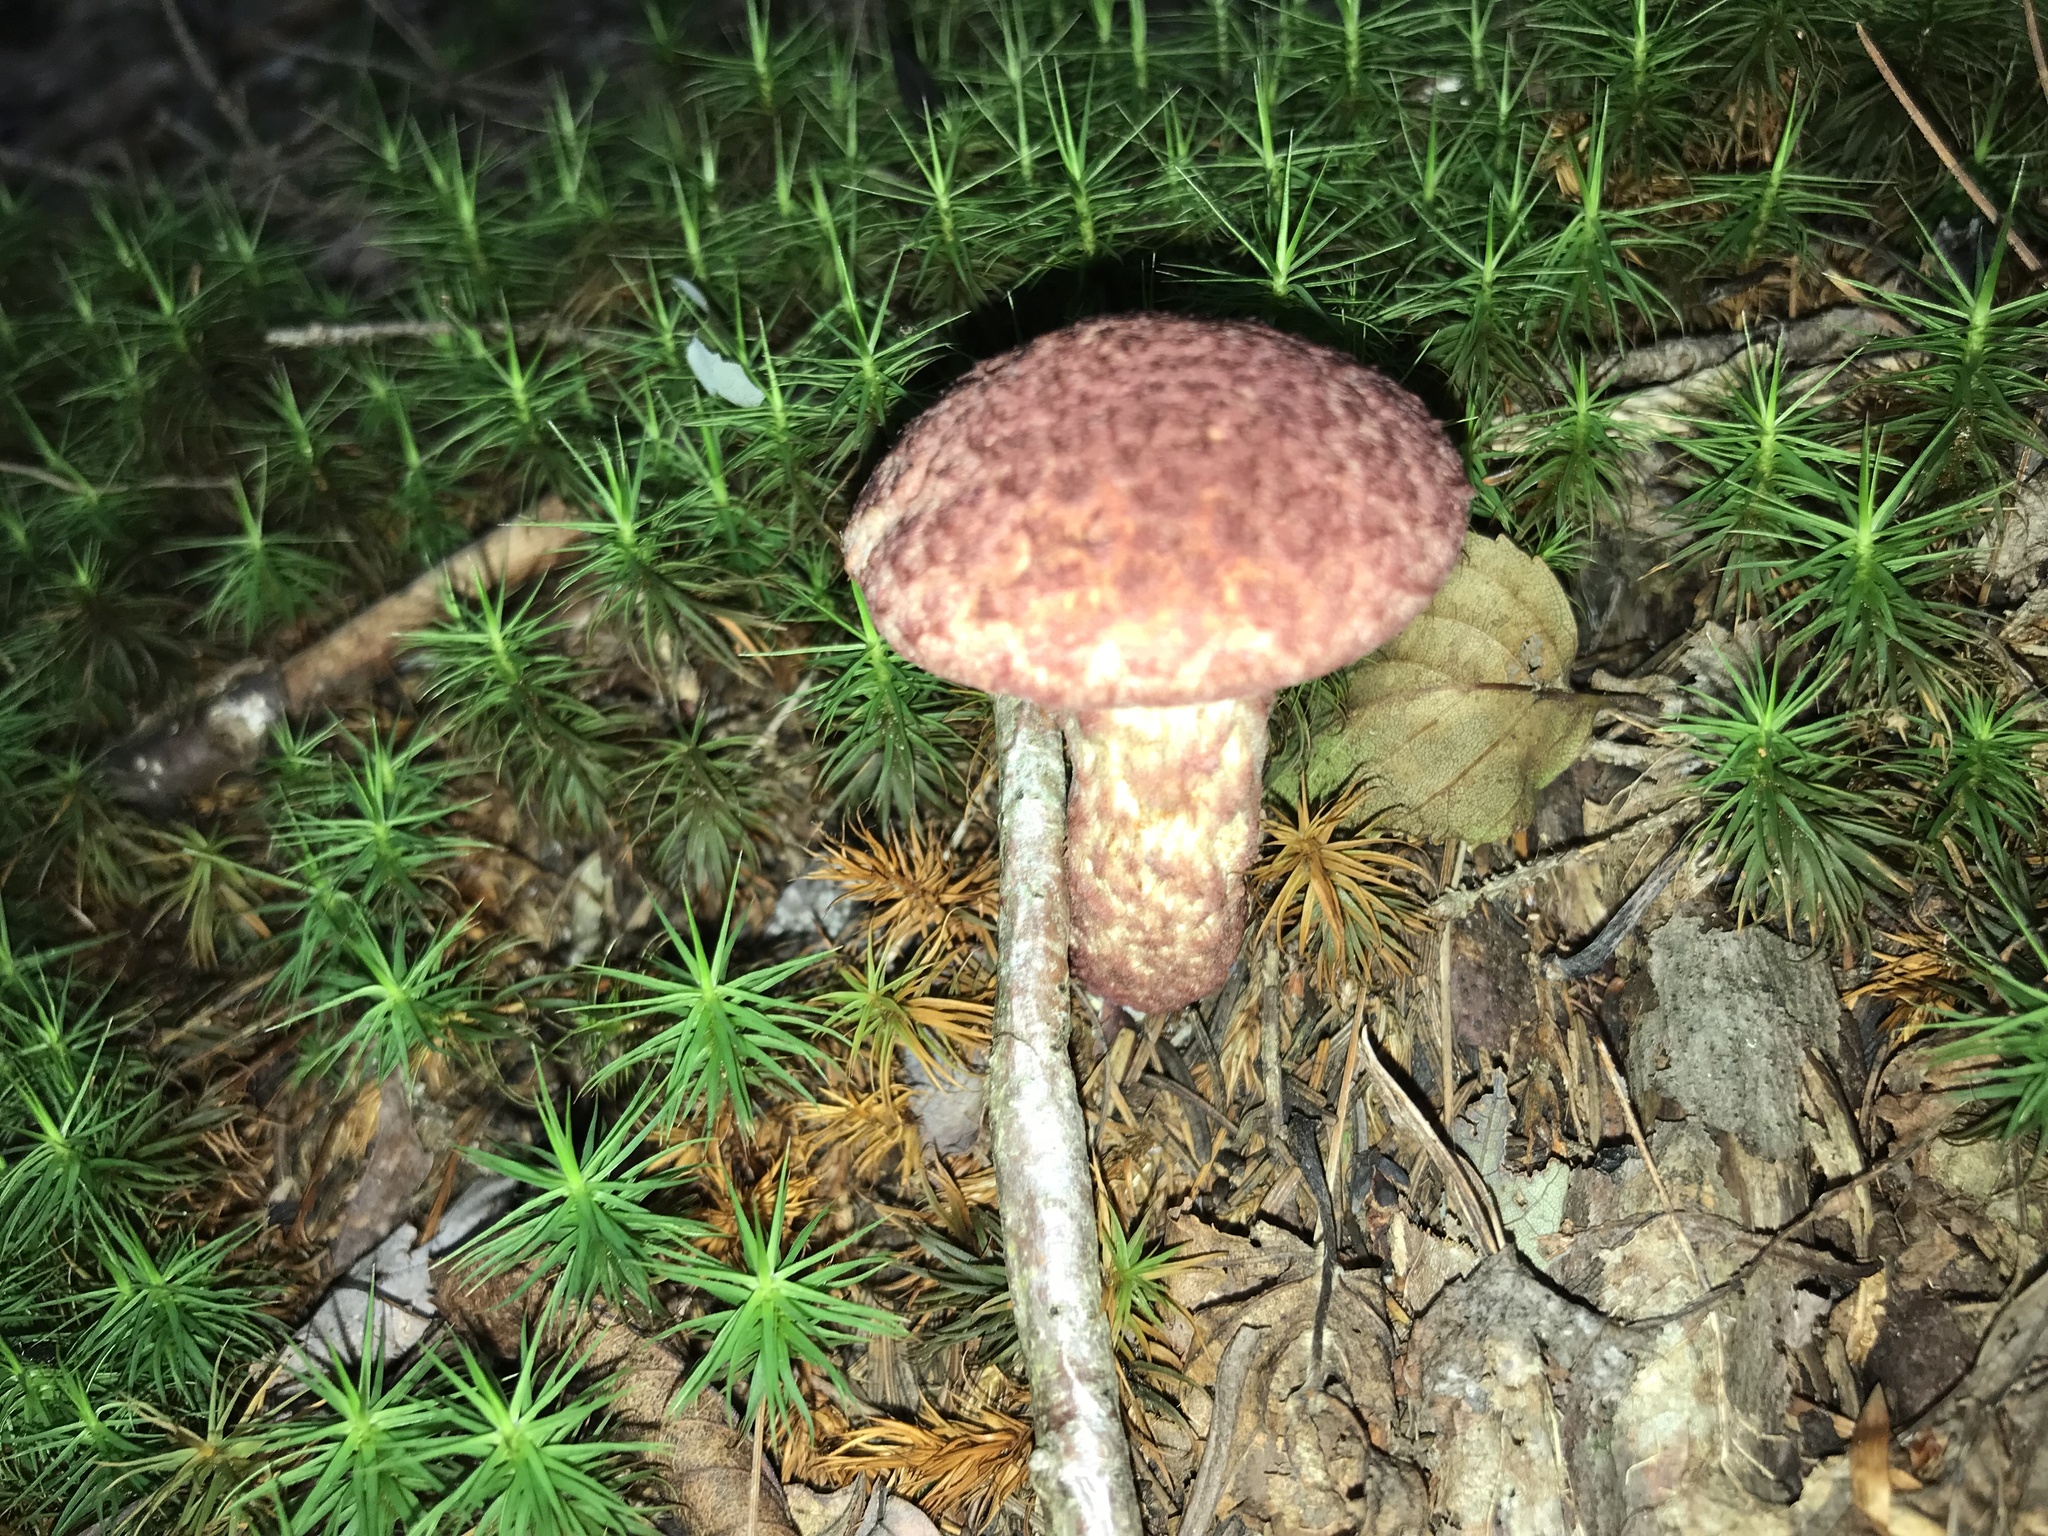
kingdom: Fungi
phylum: Basidiomycota
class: Agaricomycetes
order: Boletales
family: Suillaceae
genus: Suillus
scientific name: Suillus spraguei
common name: Painted suillus
